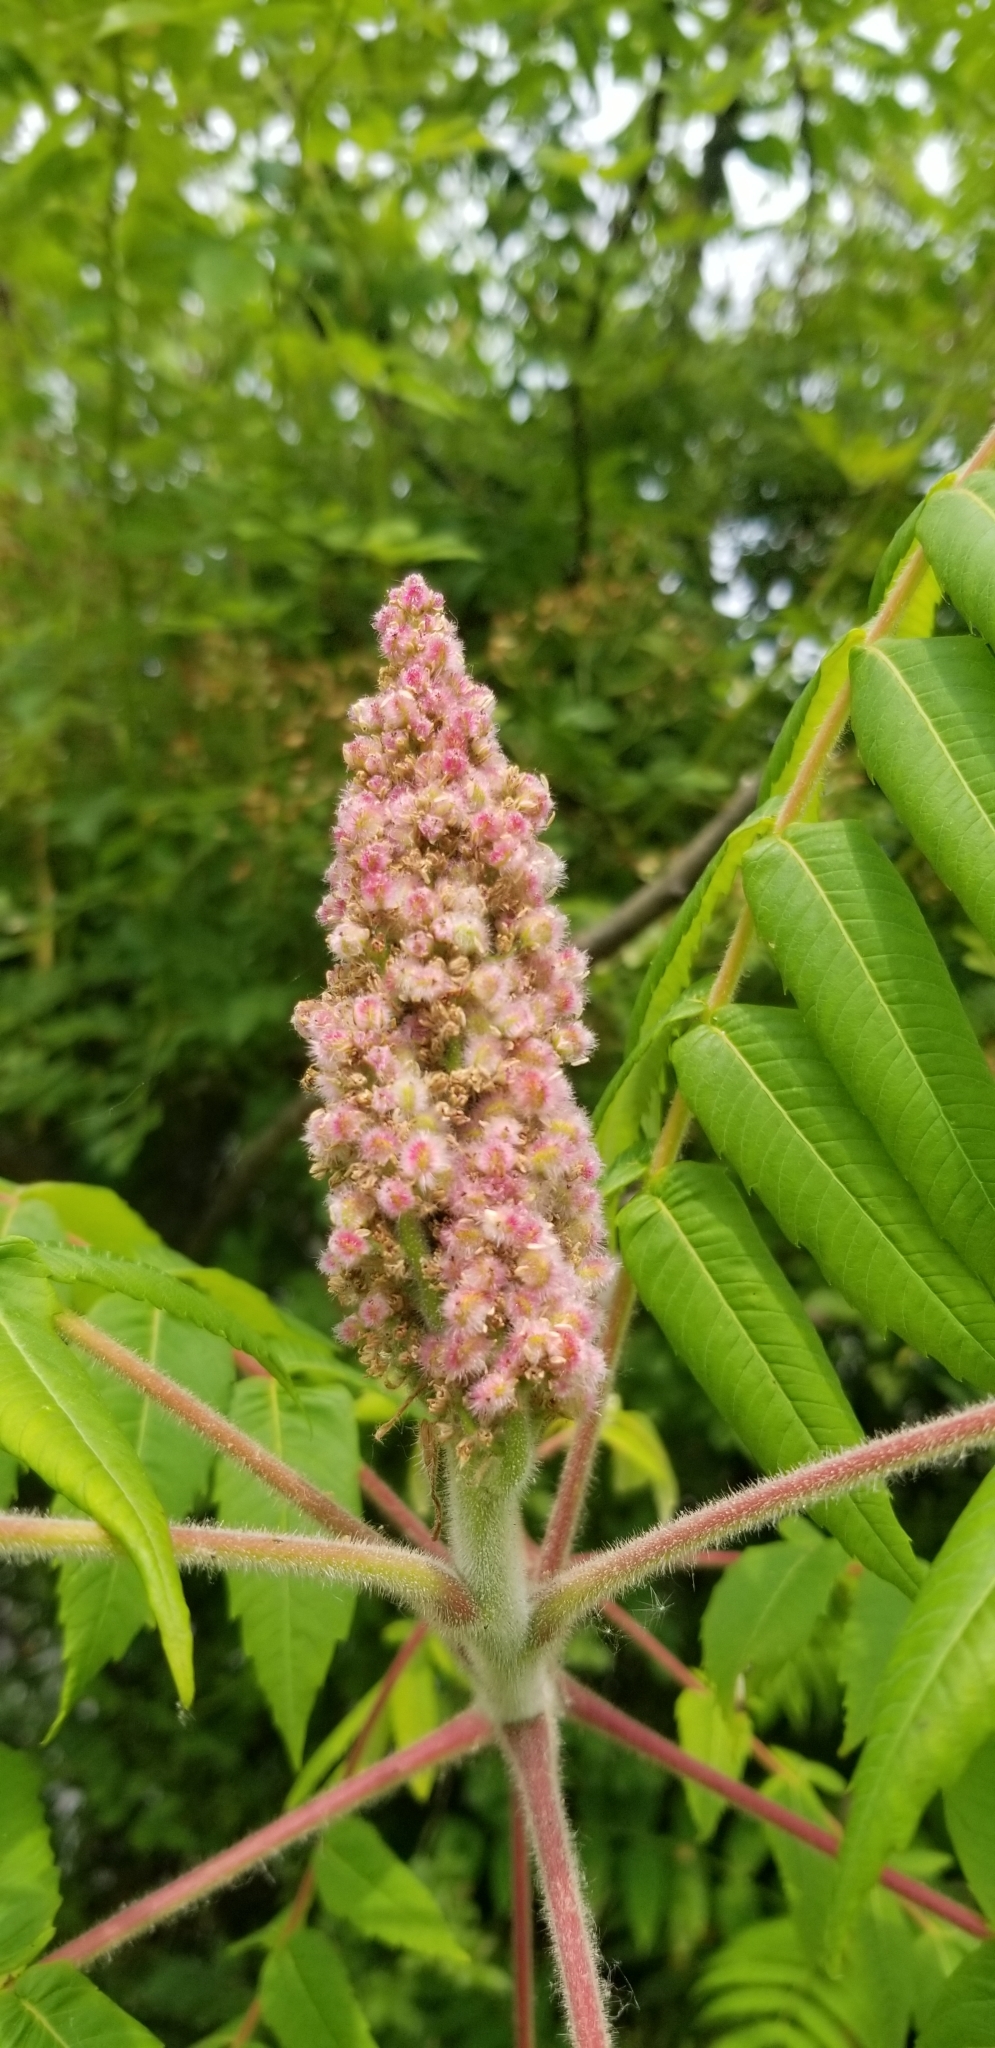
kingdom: Plantae
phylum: Tracheophyta
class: Magnoliopsida
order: Sapindales
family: Anacardiaceae
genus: Rhus
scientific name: Rhus typhina
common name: Staghorn sumac
